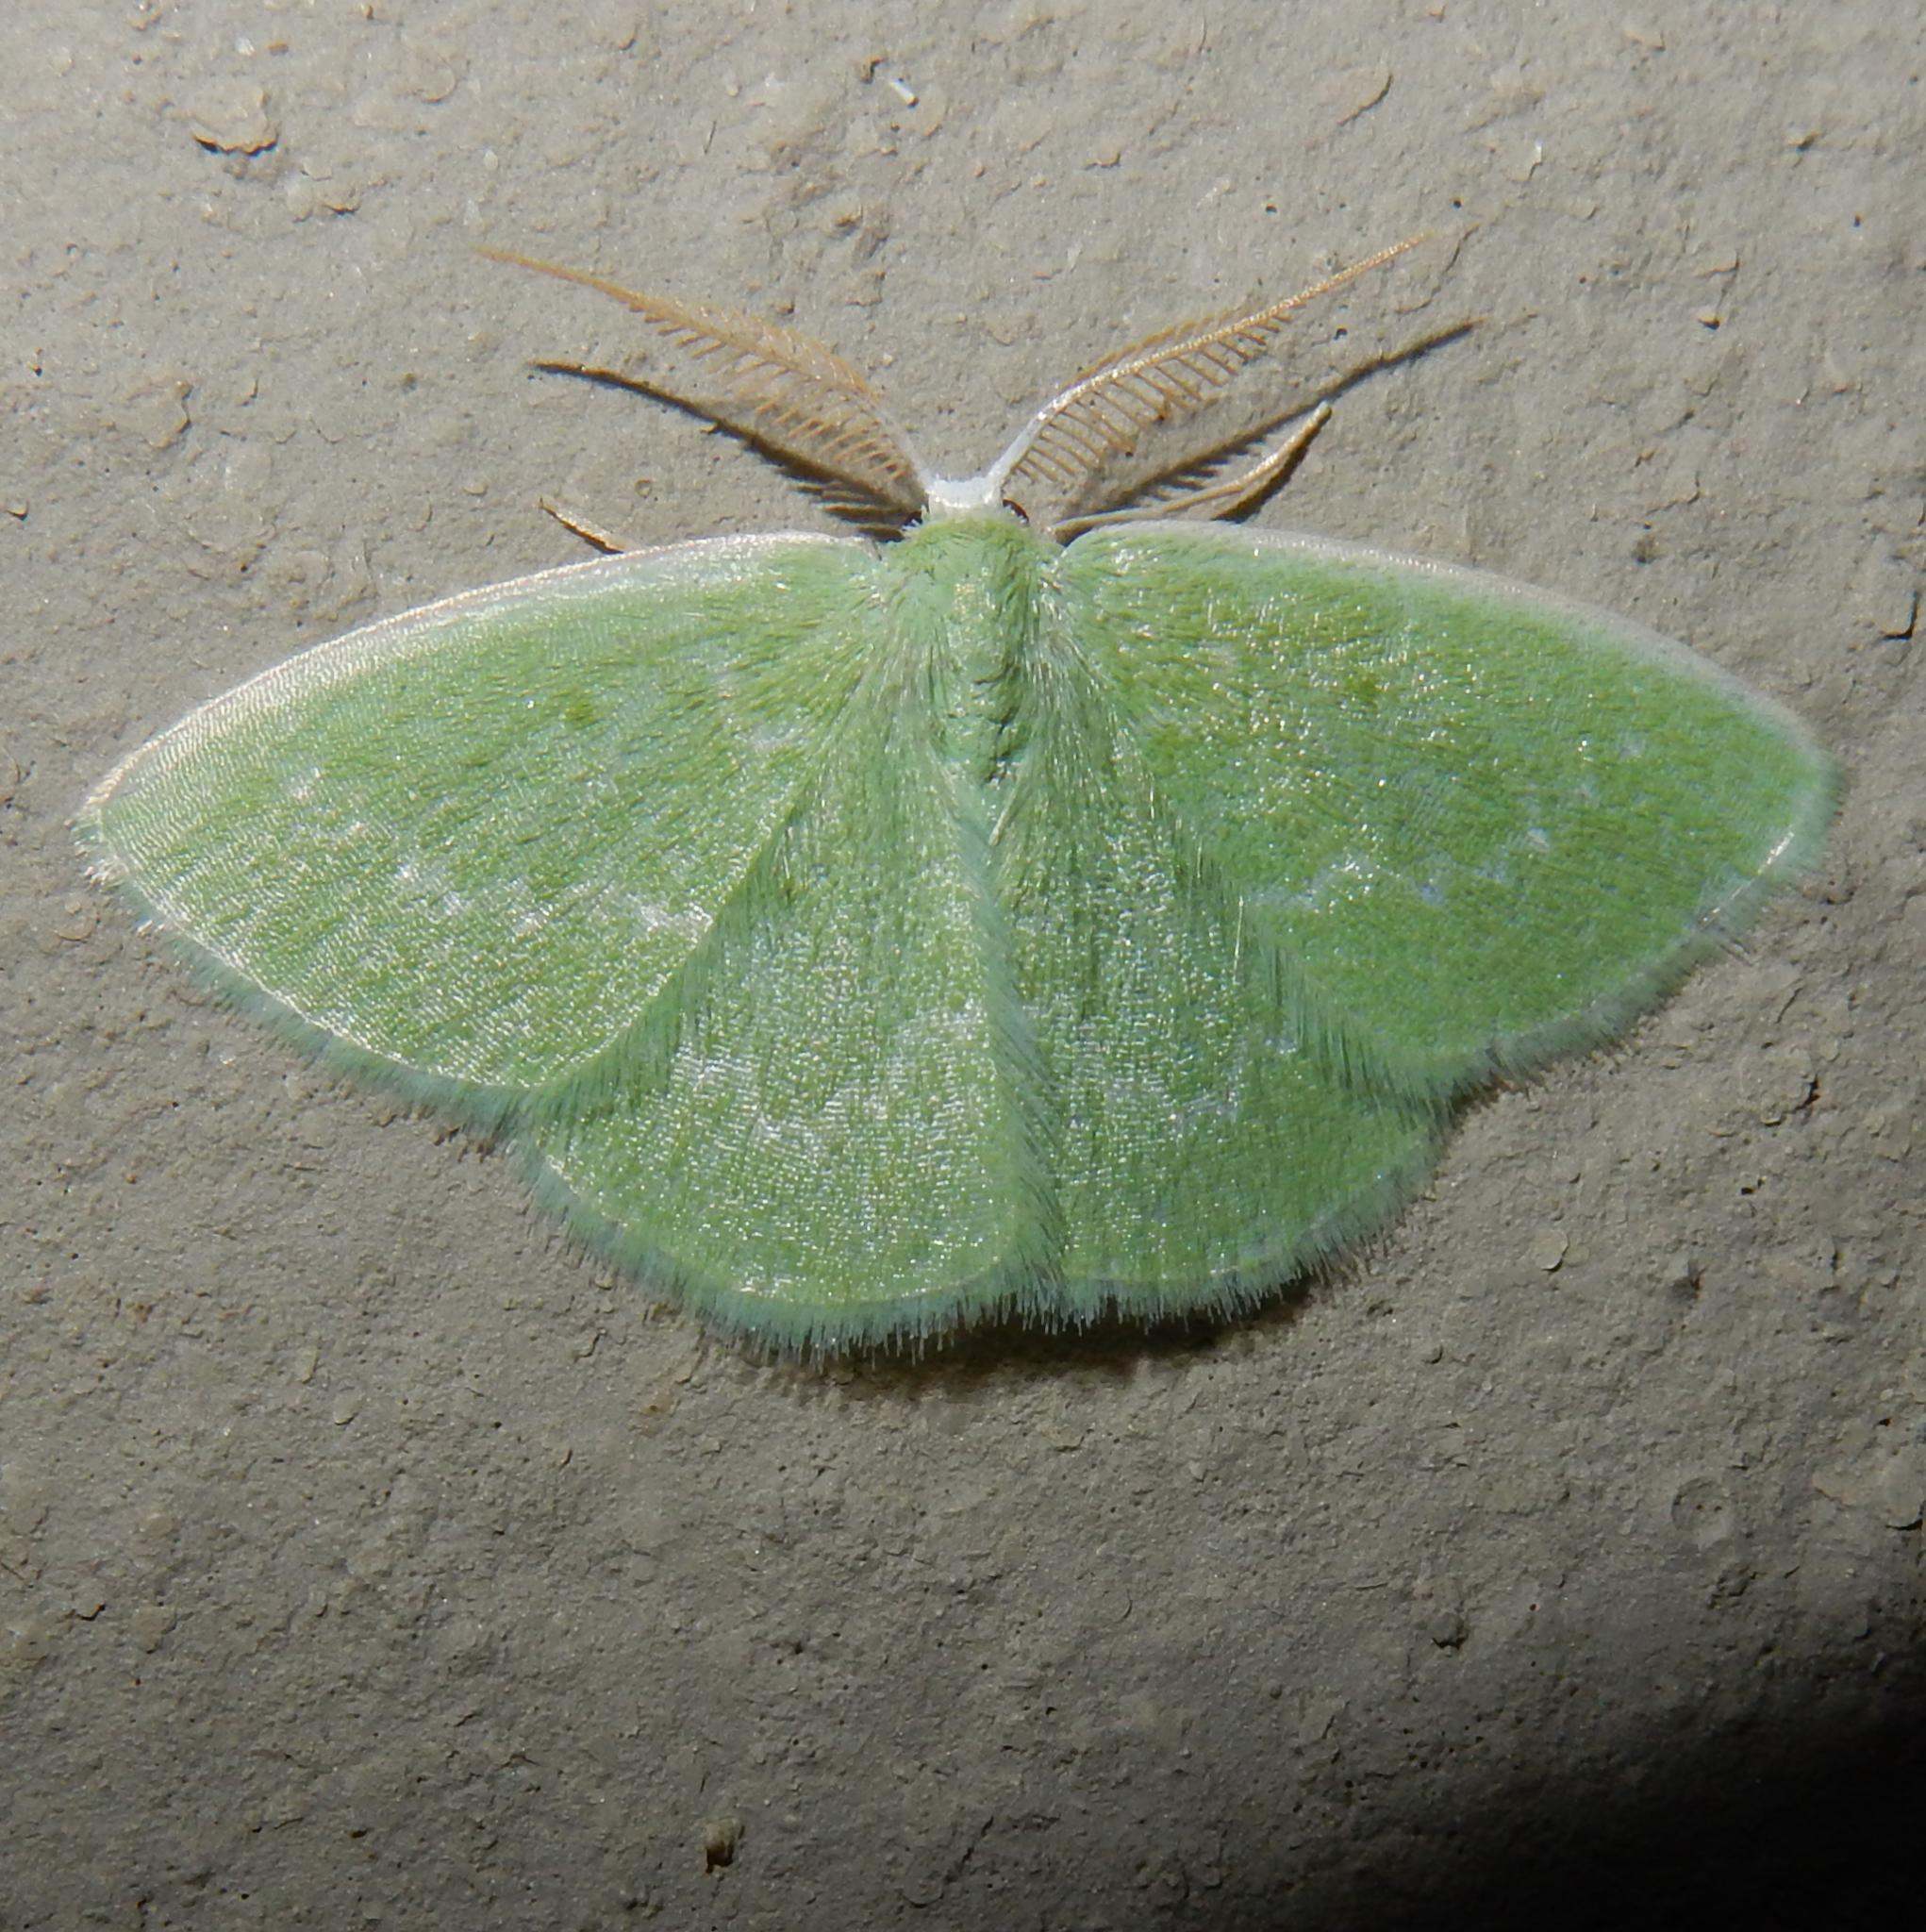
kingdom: Animalia
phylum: Arthropoda
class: Insecta
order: Lepidoptera
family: Geometridae
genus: Comostolopsis
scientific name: Comostolopsis germana
